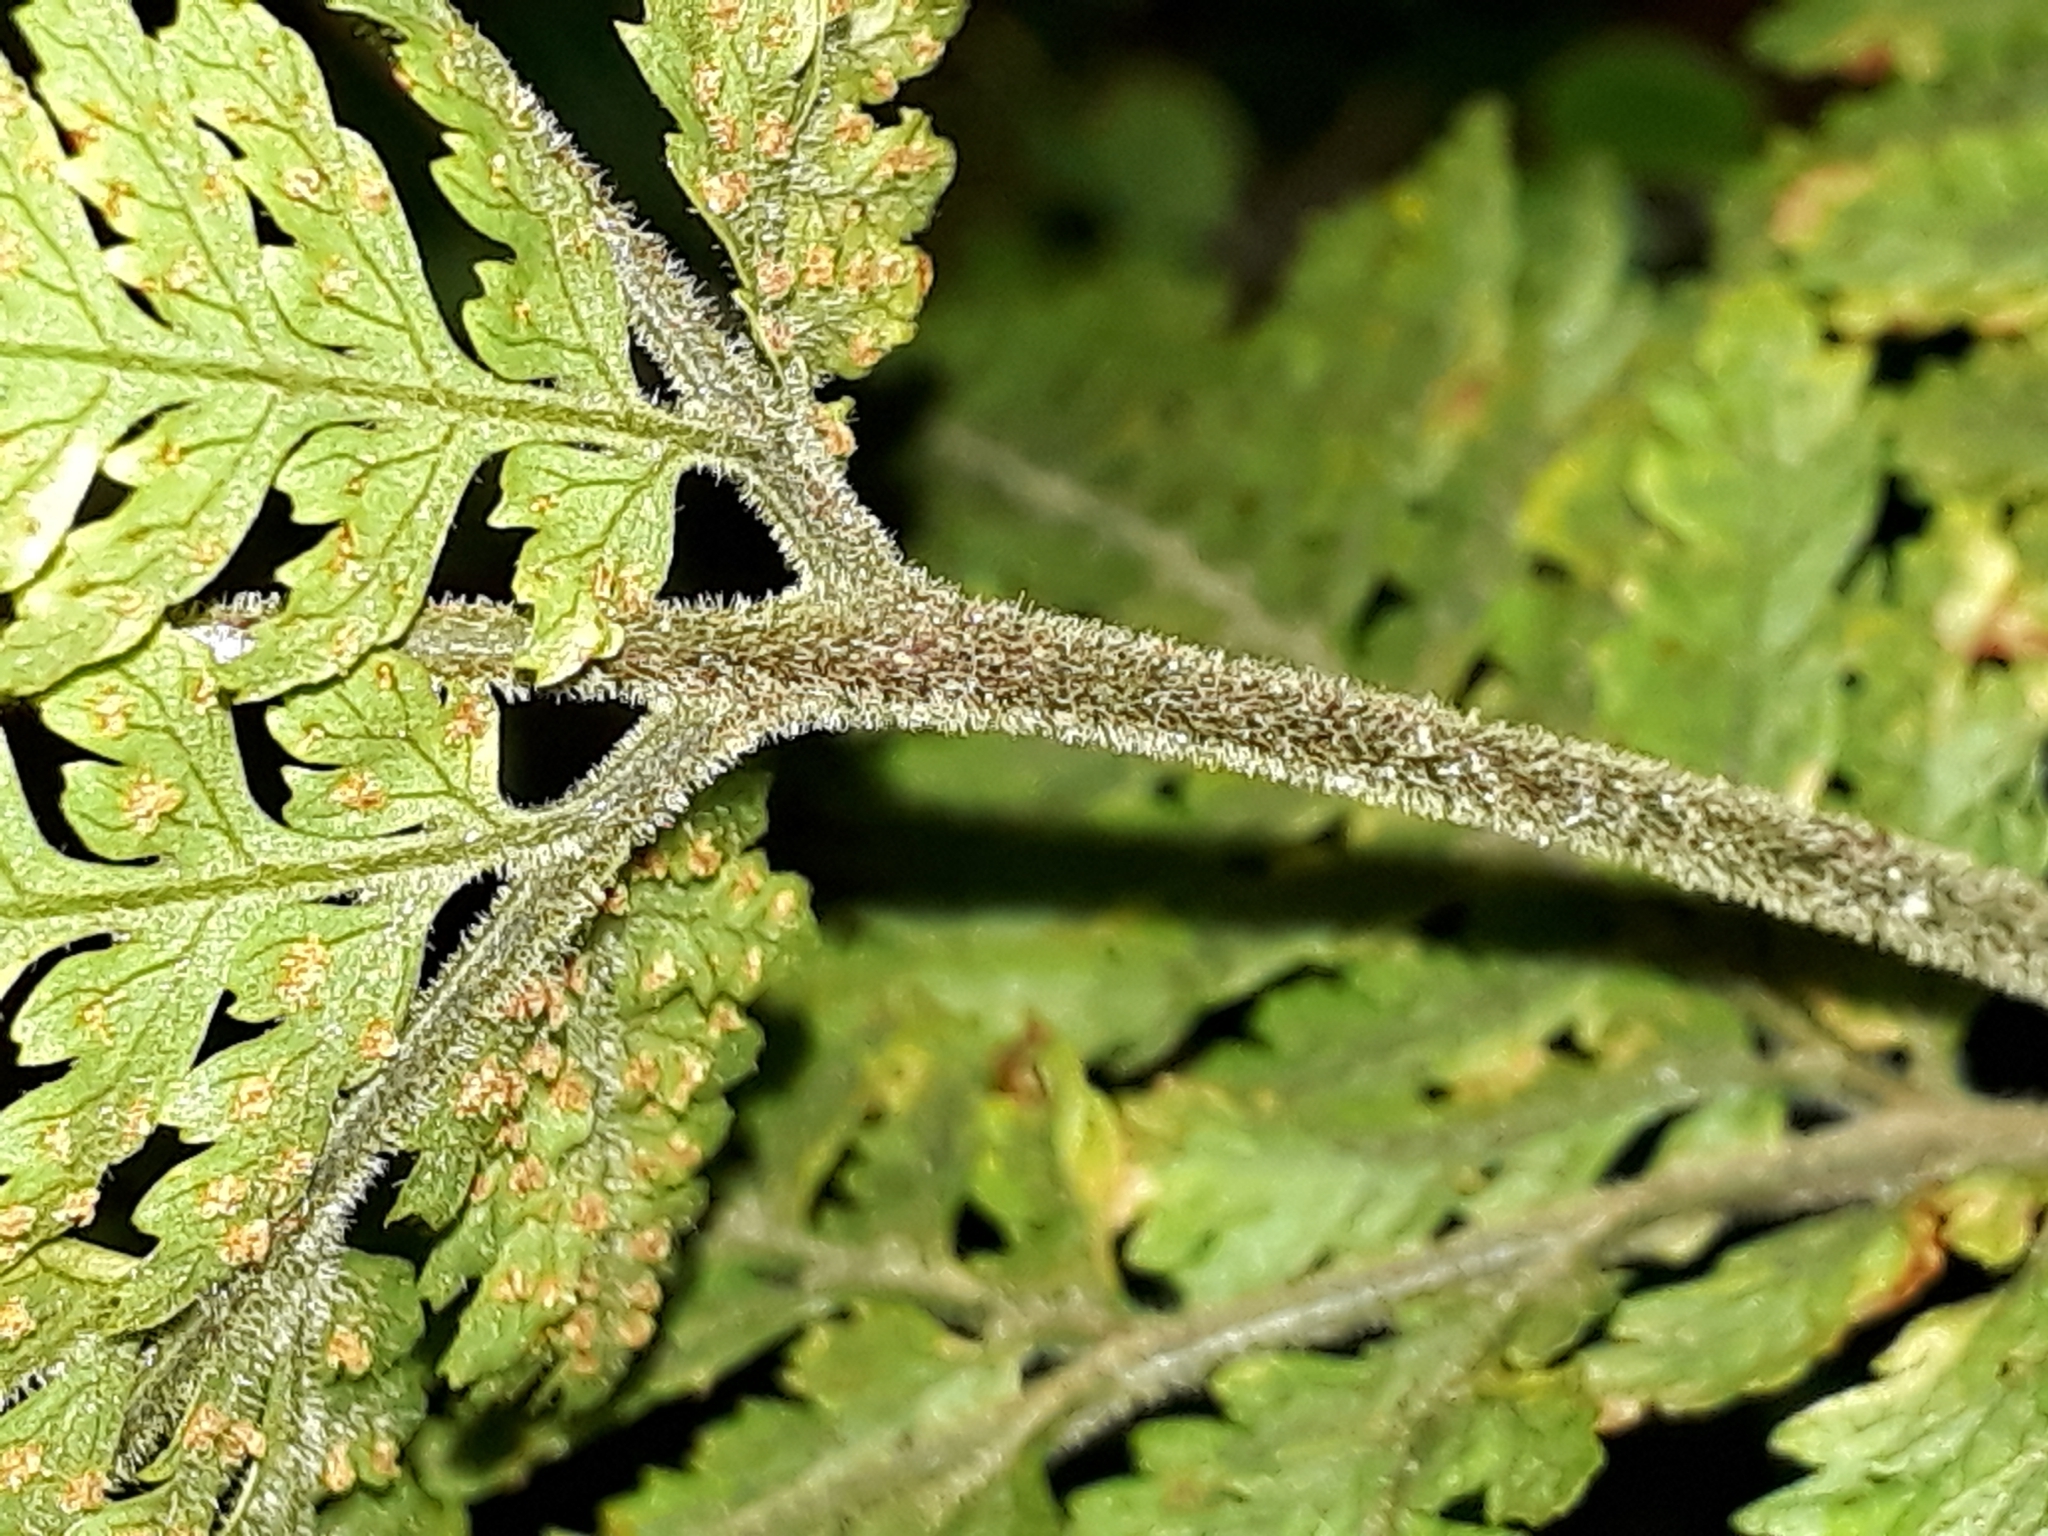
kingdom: Plantae
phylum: Tracheophyta
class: Polypodiopsida
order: Polypodiales
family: Dryopteridaceae
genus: Parapolystichum
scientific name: Parapolystichum microsorum
